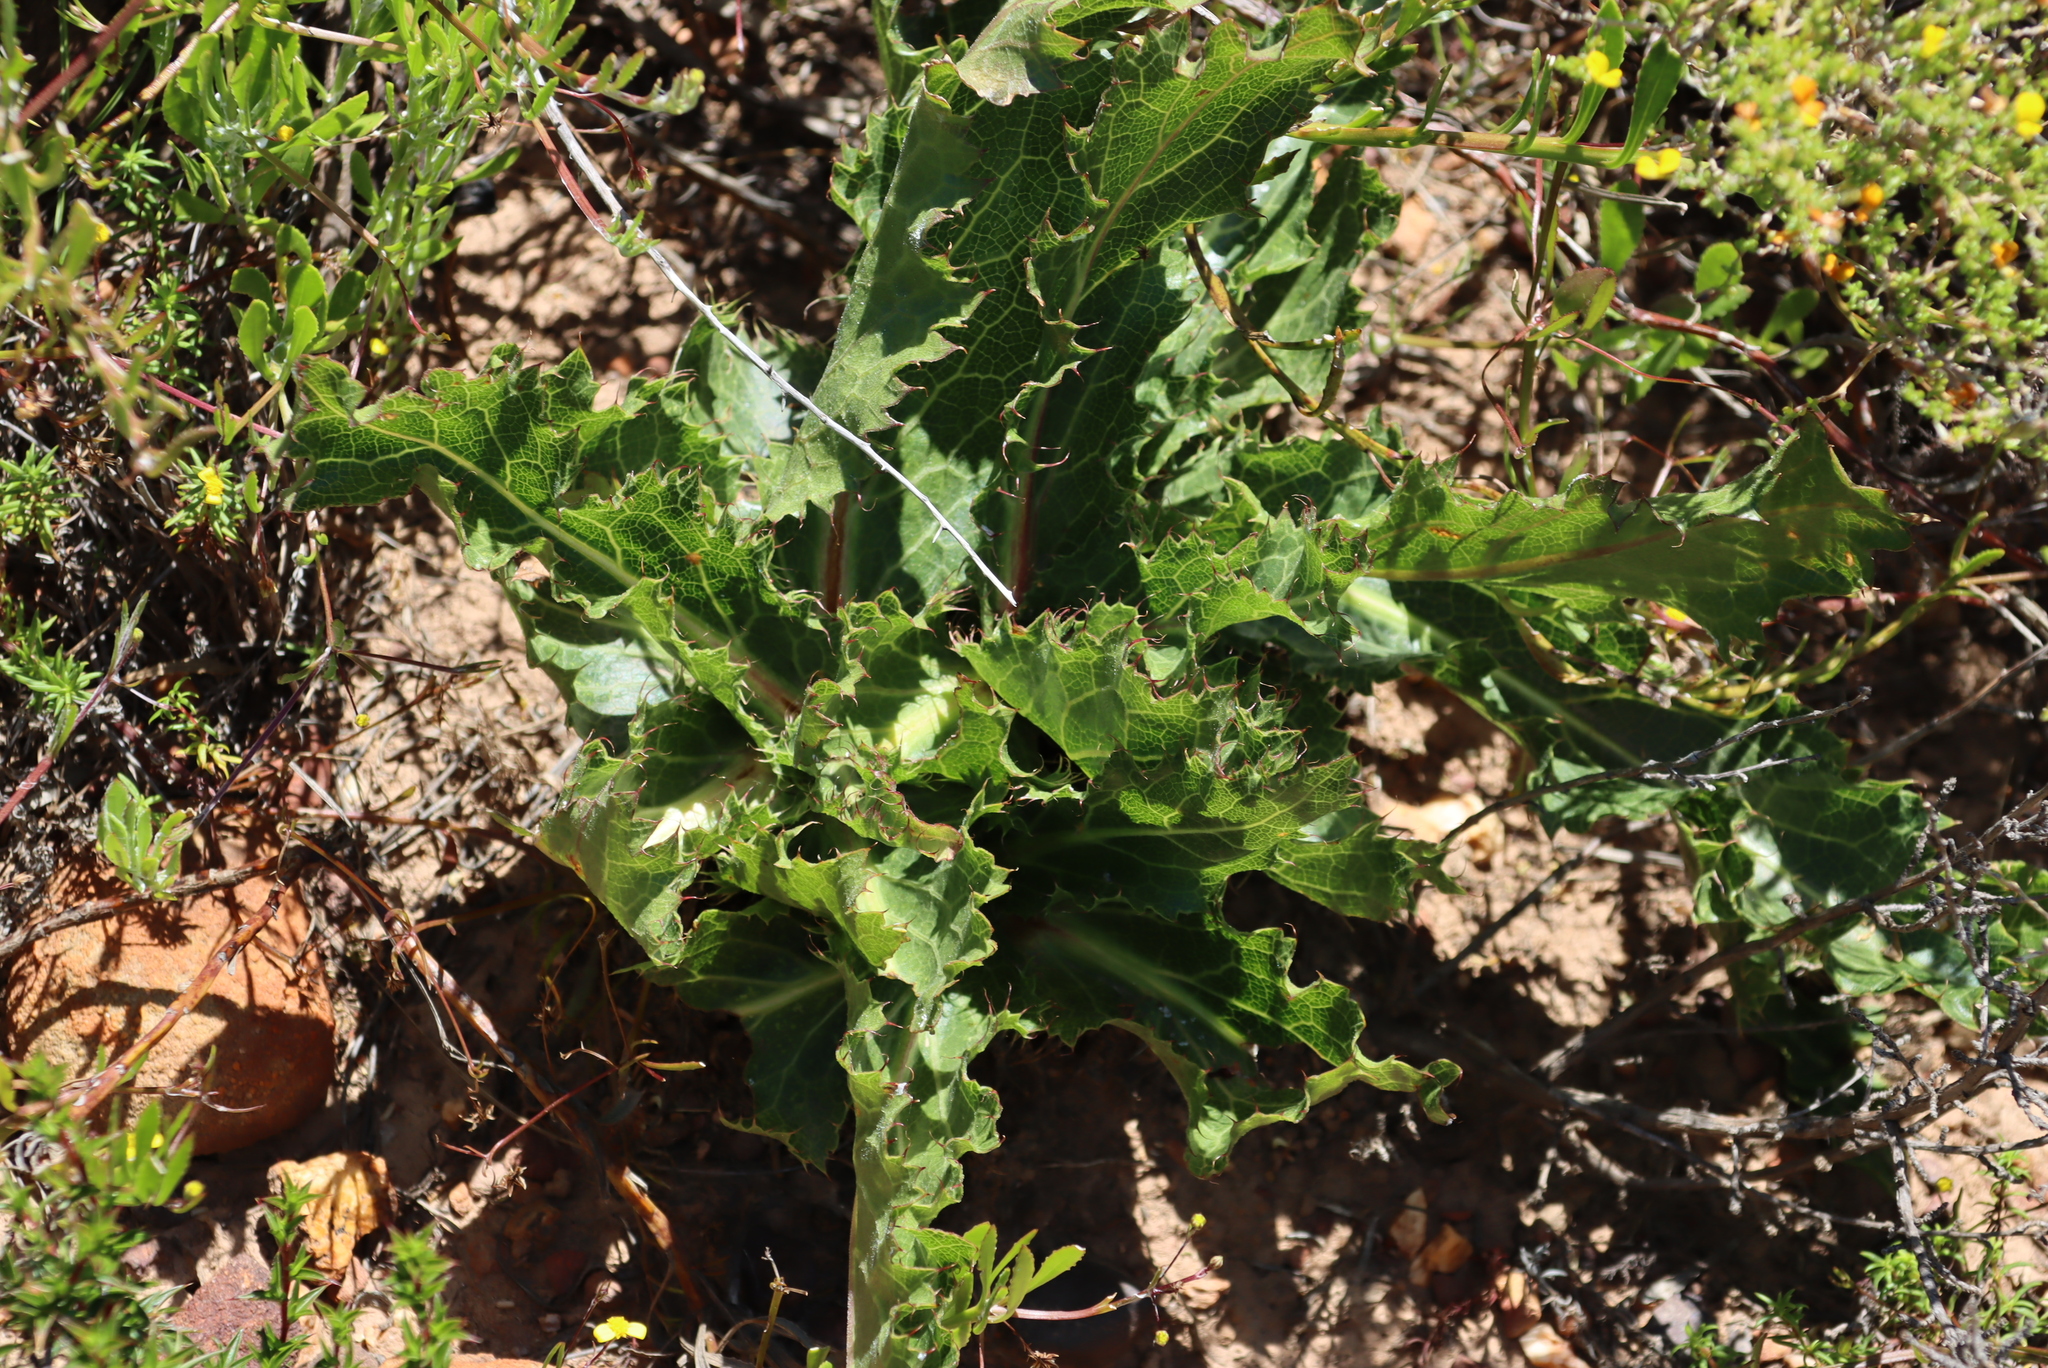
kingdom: Plantae
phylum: Tracheophyta
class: Magnoliopsida
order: Apiales
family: Apiaceae
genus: Lichtensteinia
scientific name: Lichtensteinia lacera
